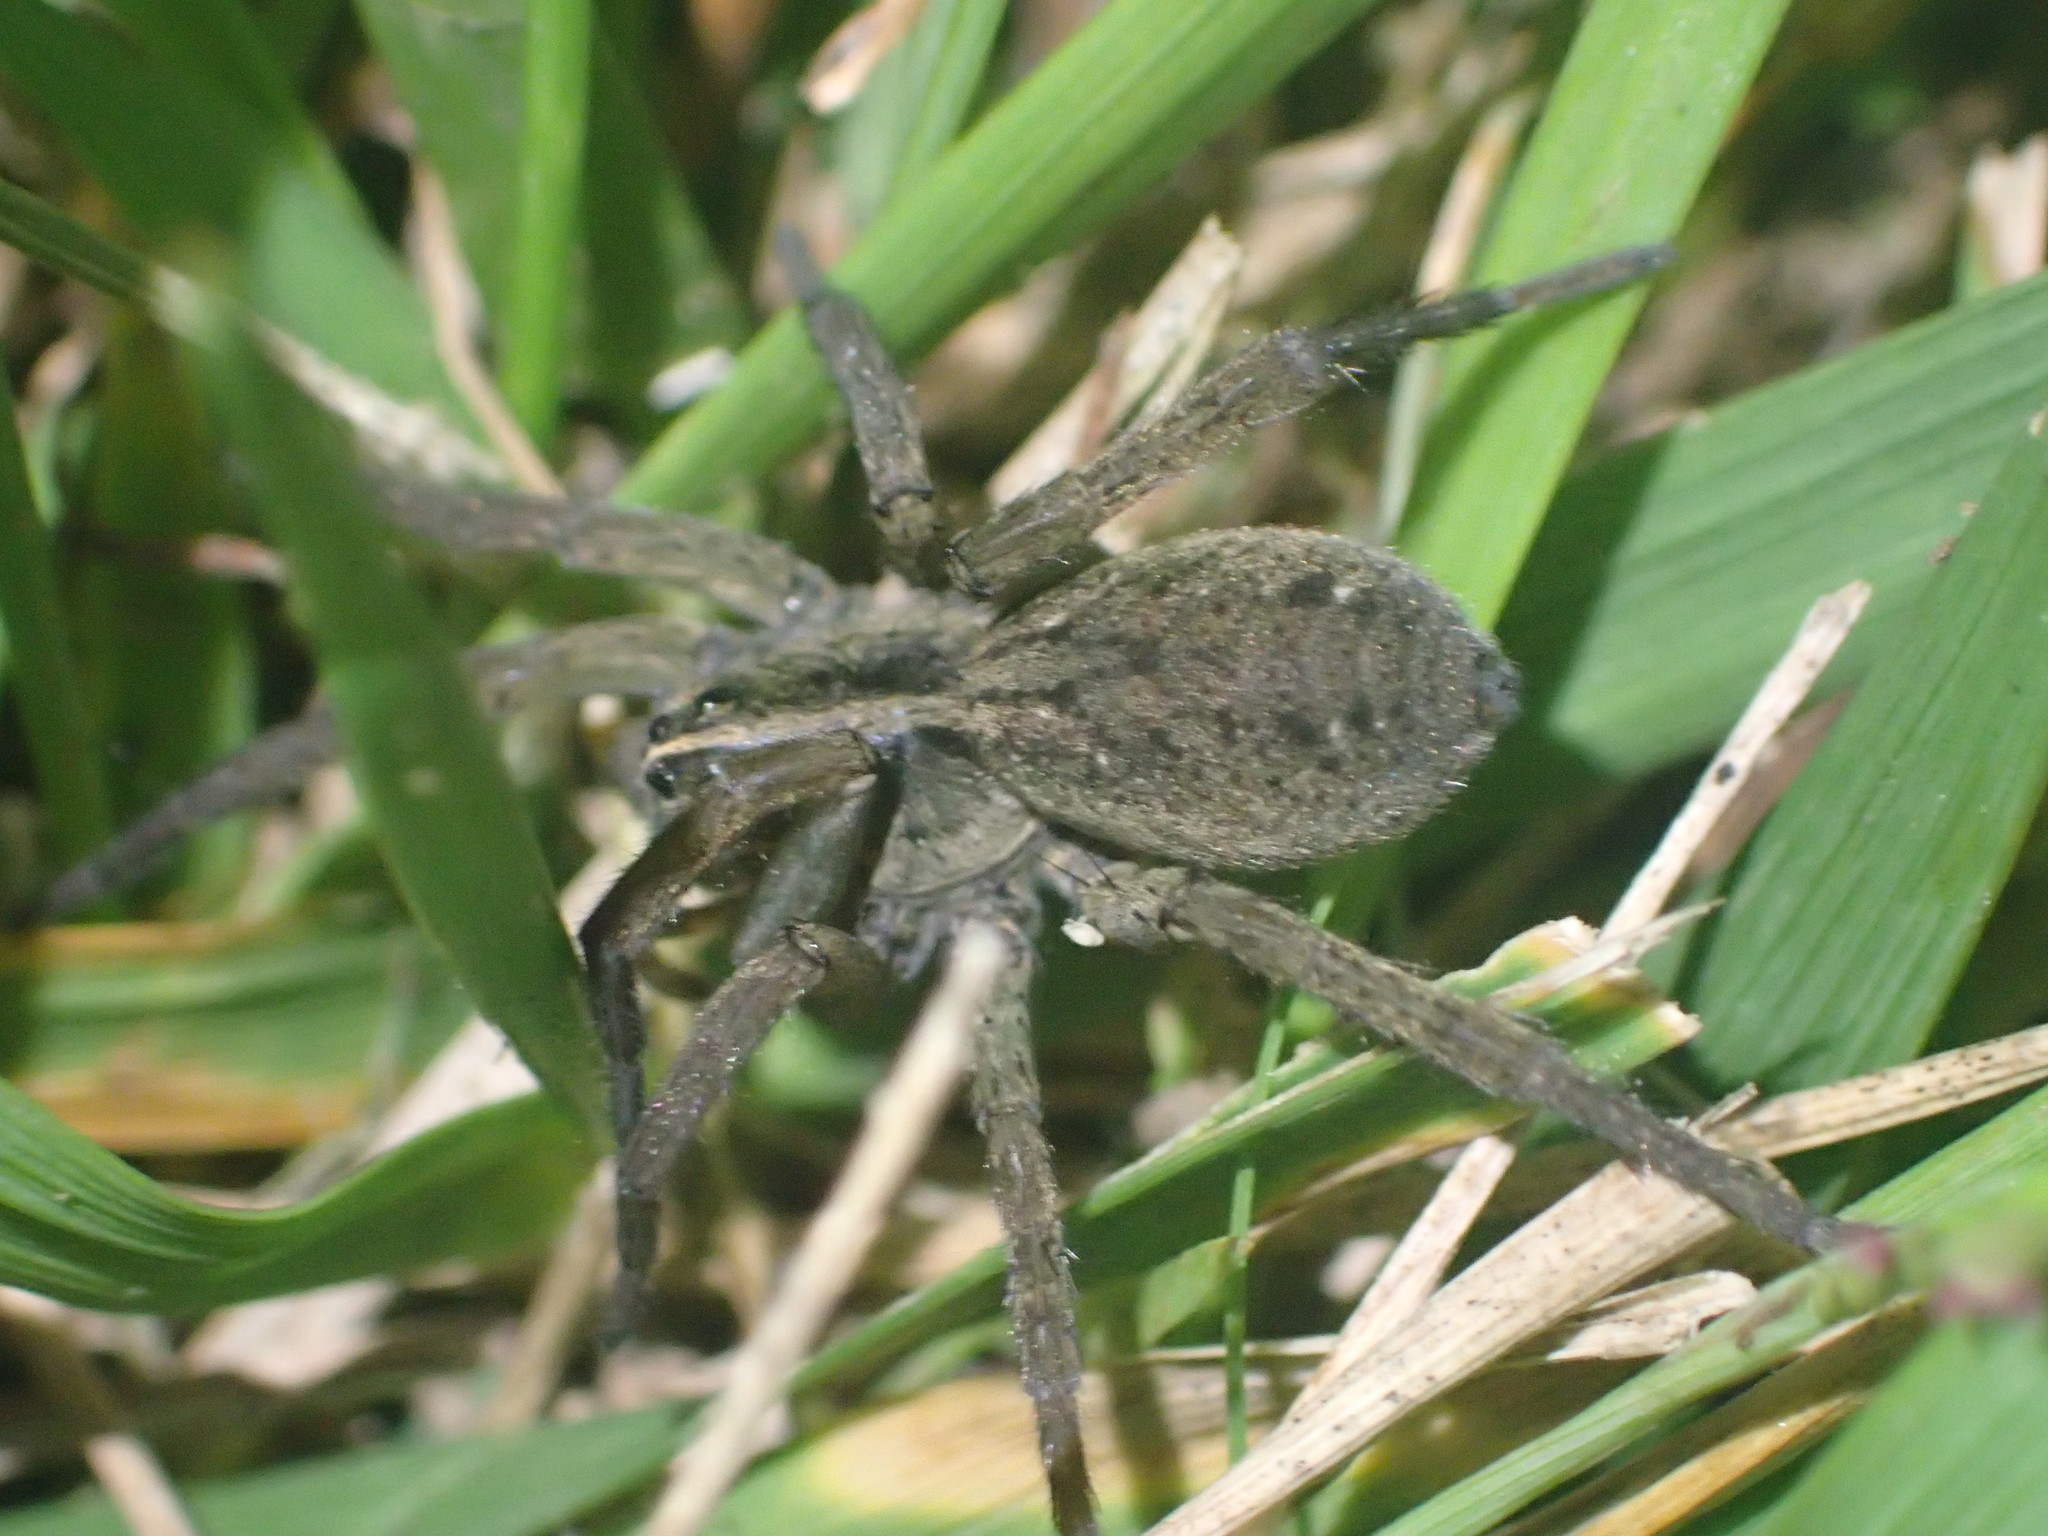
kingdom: Animalia
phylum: Arthropoda
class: Arachnida
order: Araneae
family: Lycosidae
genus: Tigrosa
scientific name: Tigrosa helluo
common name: Wetland giant wolf spider
